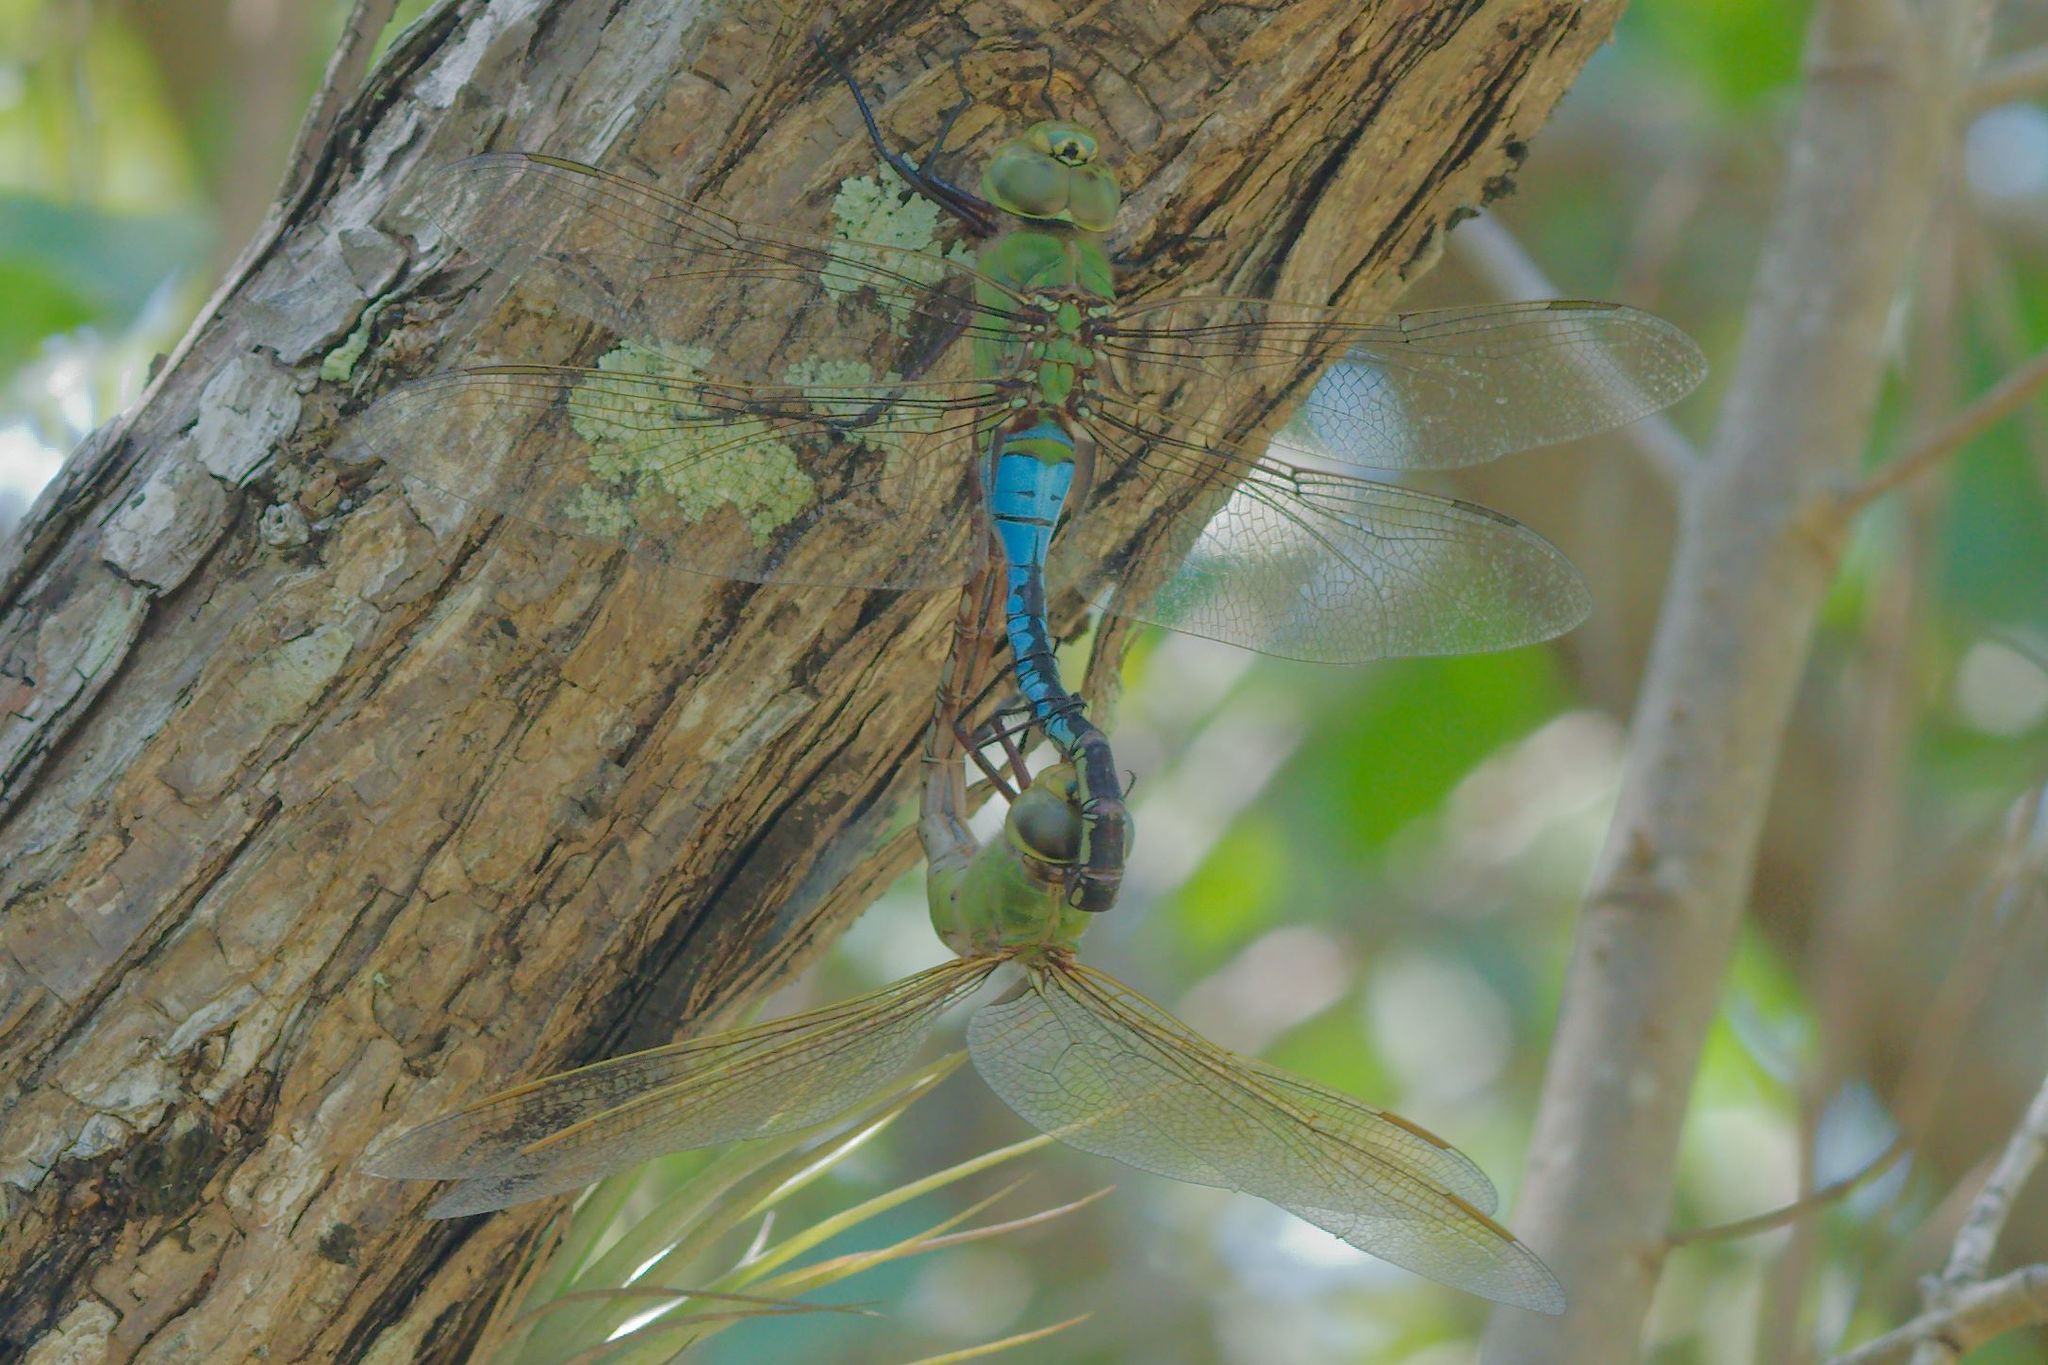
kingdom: Animalia
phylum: Arthropoda
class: Insecta
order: Odonata
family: Aeshnidae
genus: Anax
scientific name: Anax junius
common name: Common green darner
